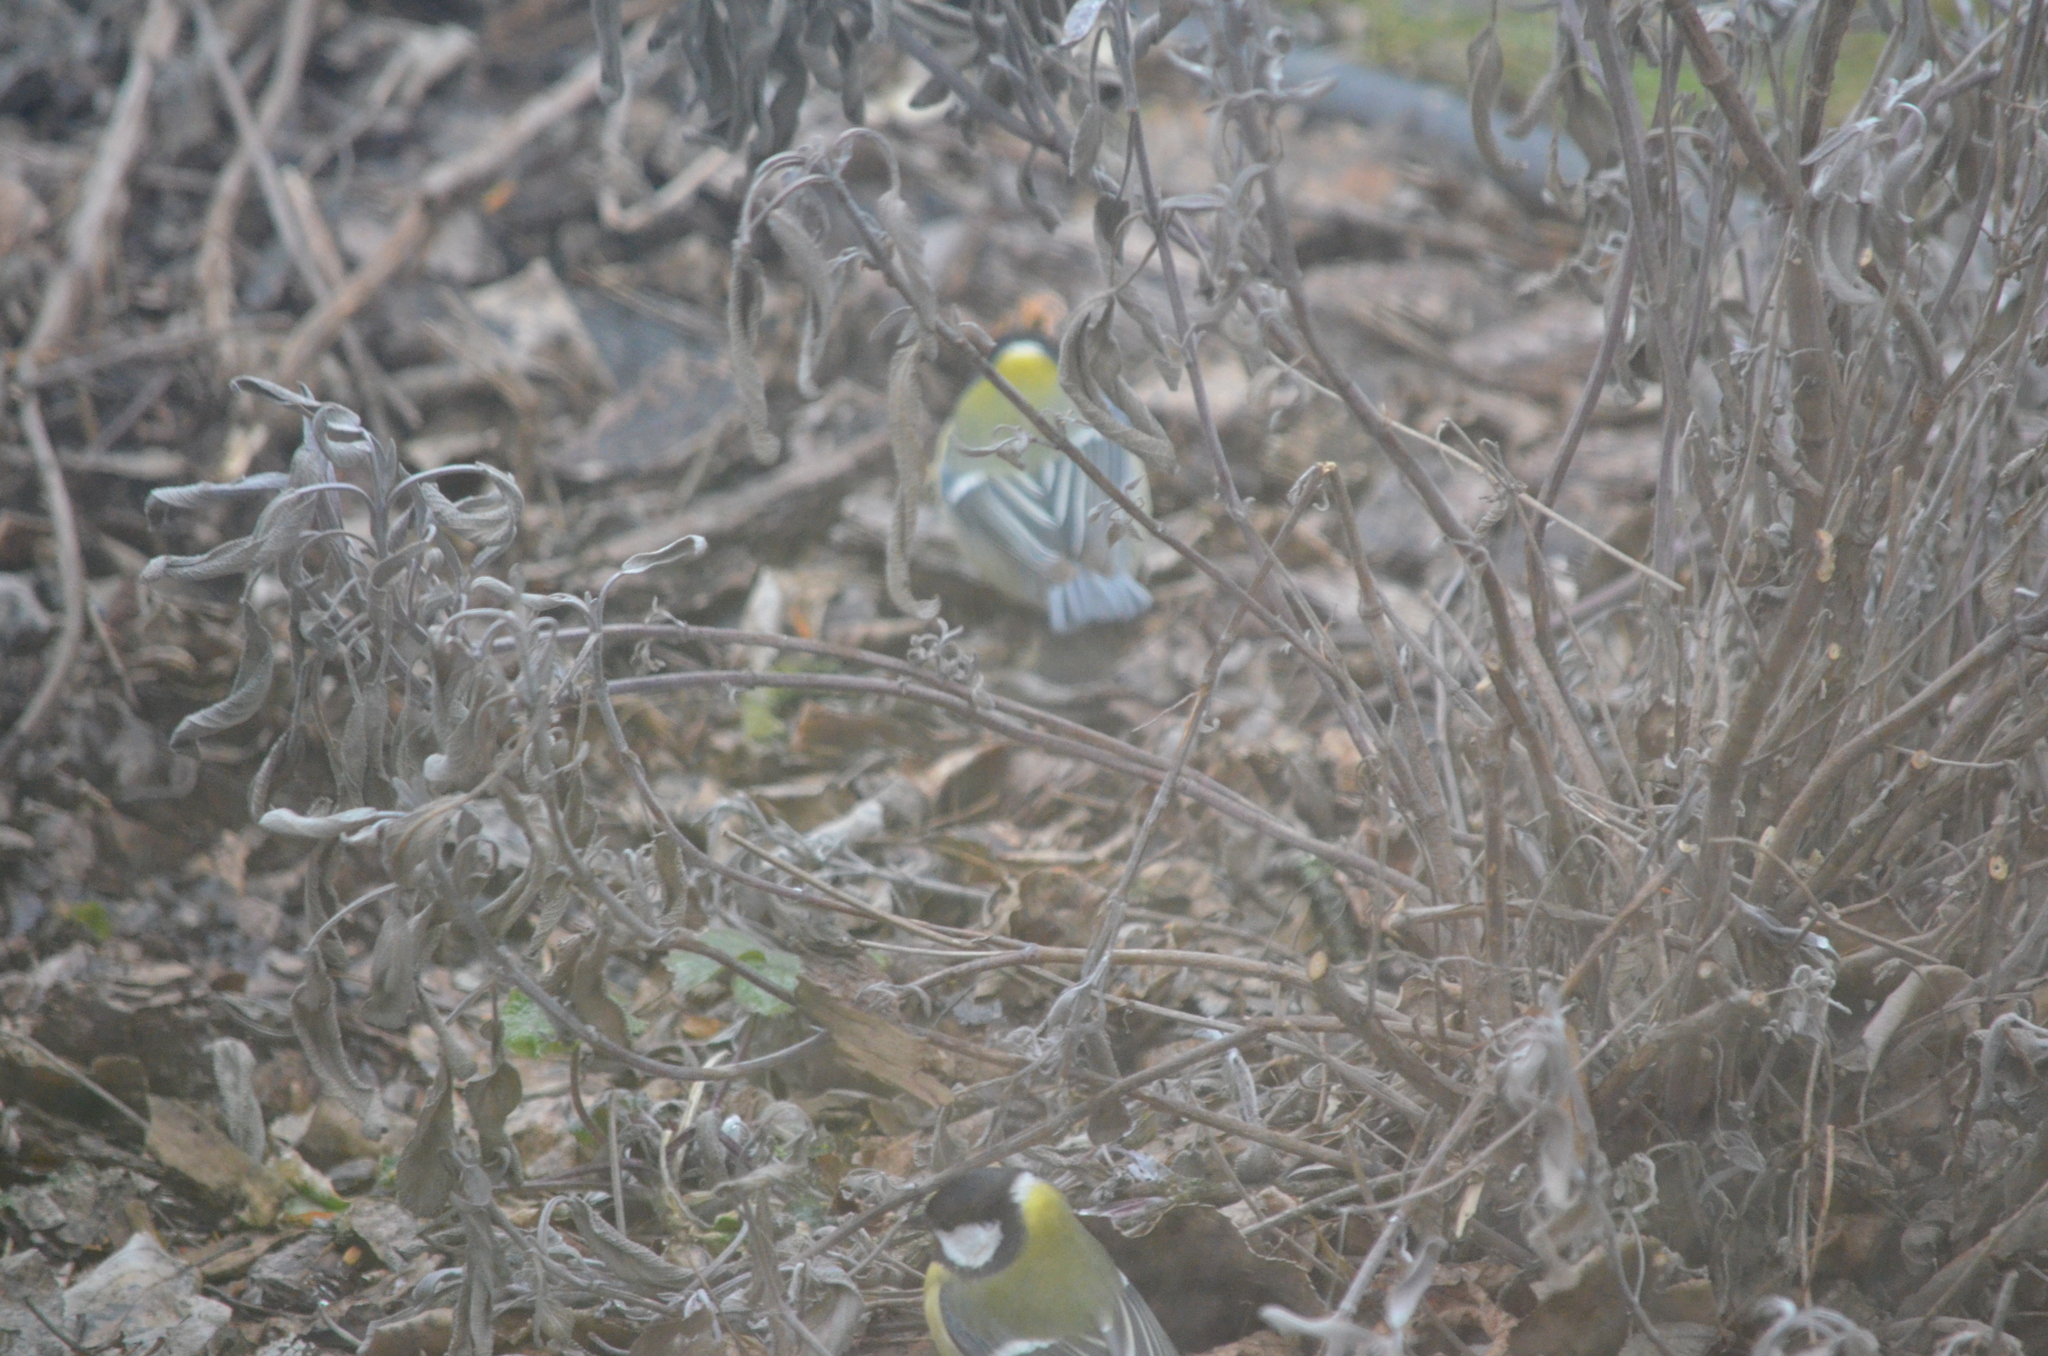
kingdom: Animalia
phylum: Chordata
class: Aves
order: Passeriformes
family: Paridae
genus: Parus
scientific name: Parus major
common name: Great tit
